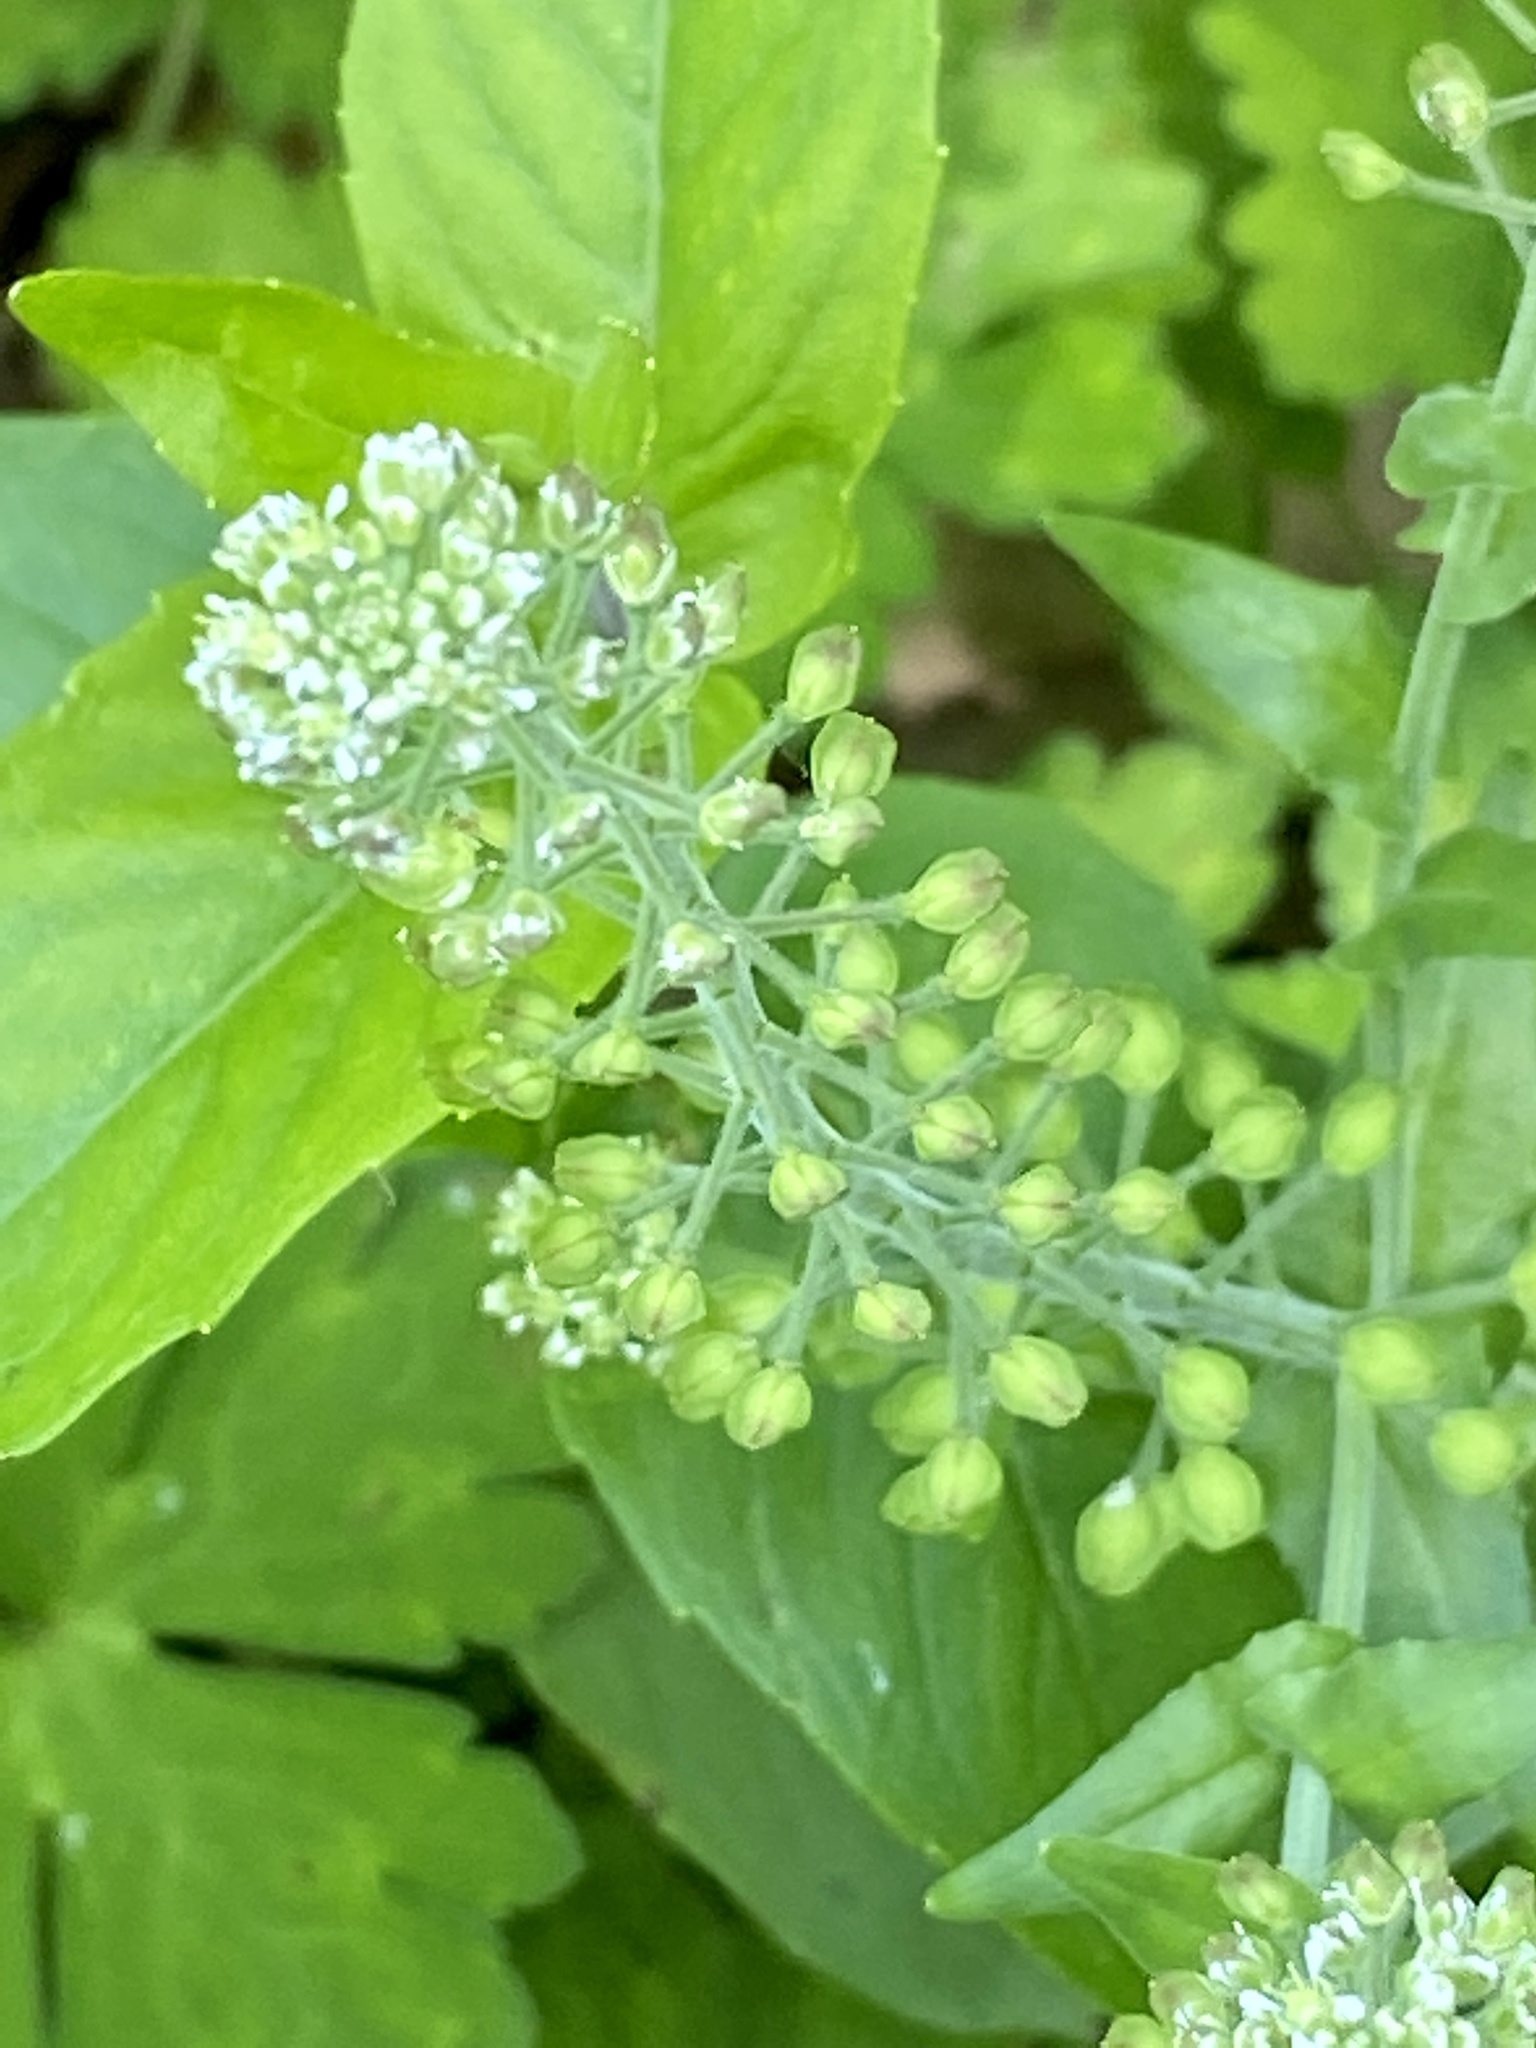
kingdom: Plantae
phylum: Tracheophyta
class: Magnoliopsida
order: Brassicales
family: Brassicaceae
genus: Lepidium
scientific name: Lepidium campestre
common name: Field pepperwort
